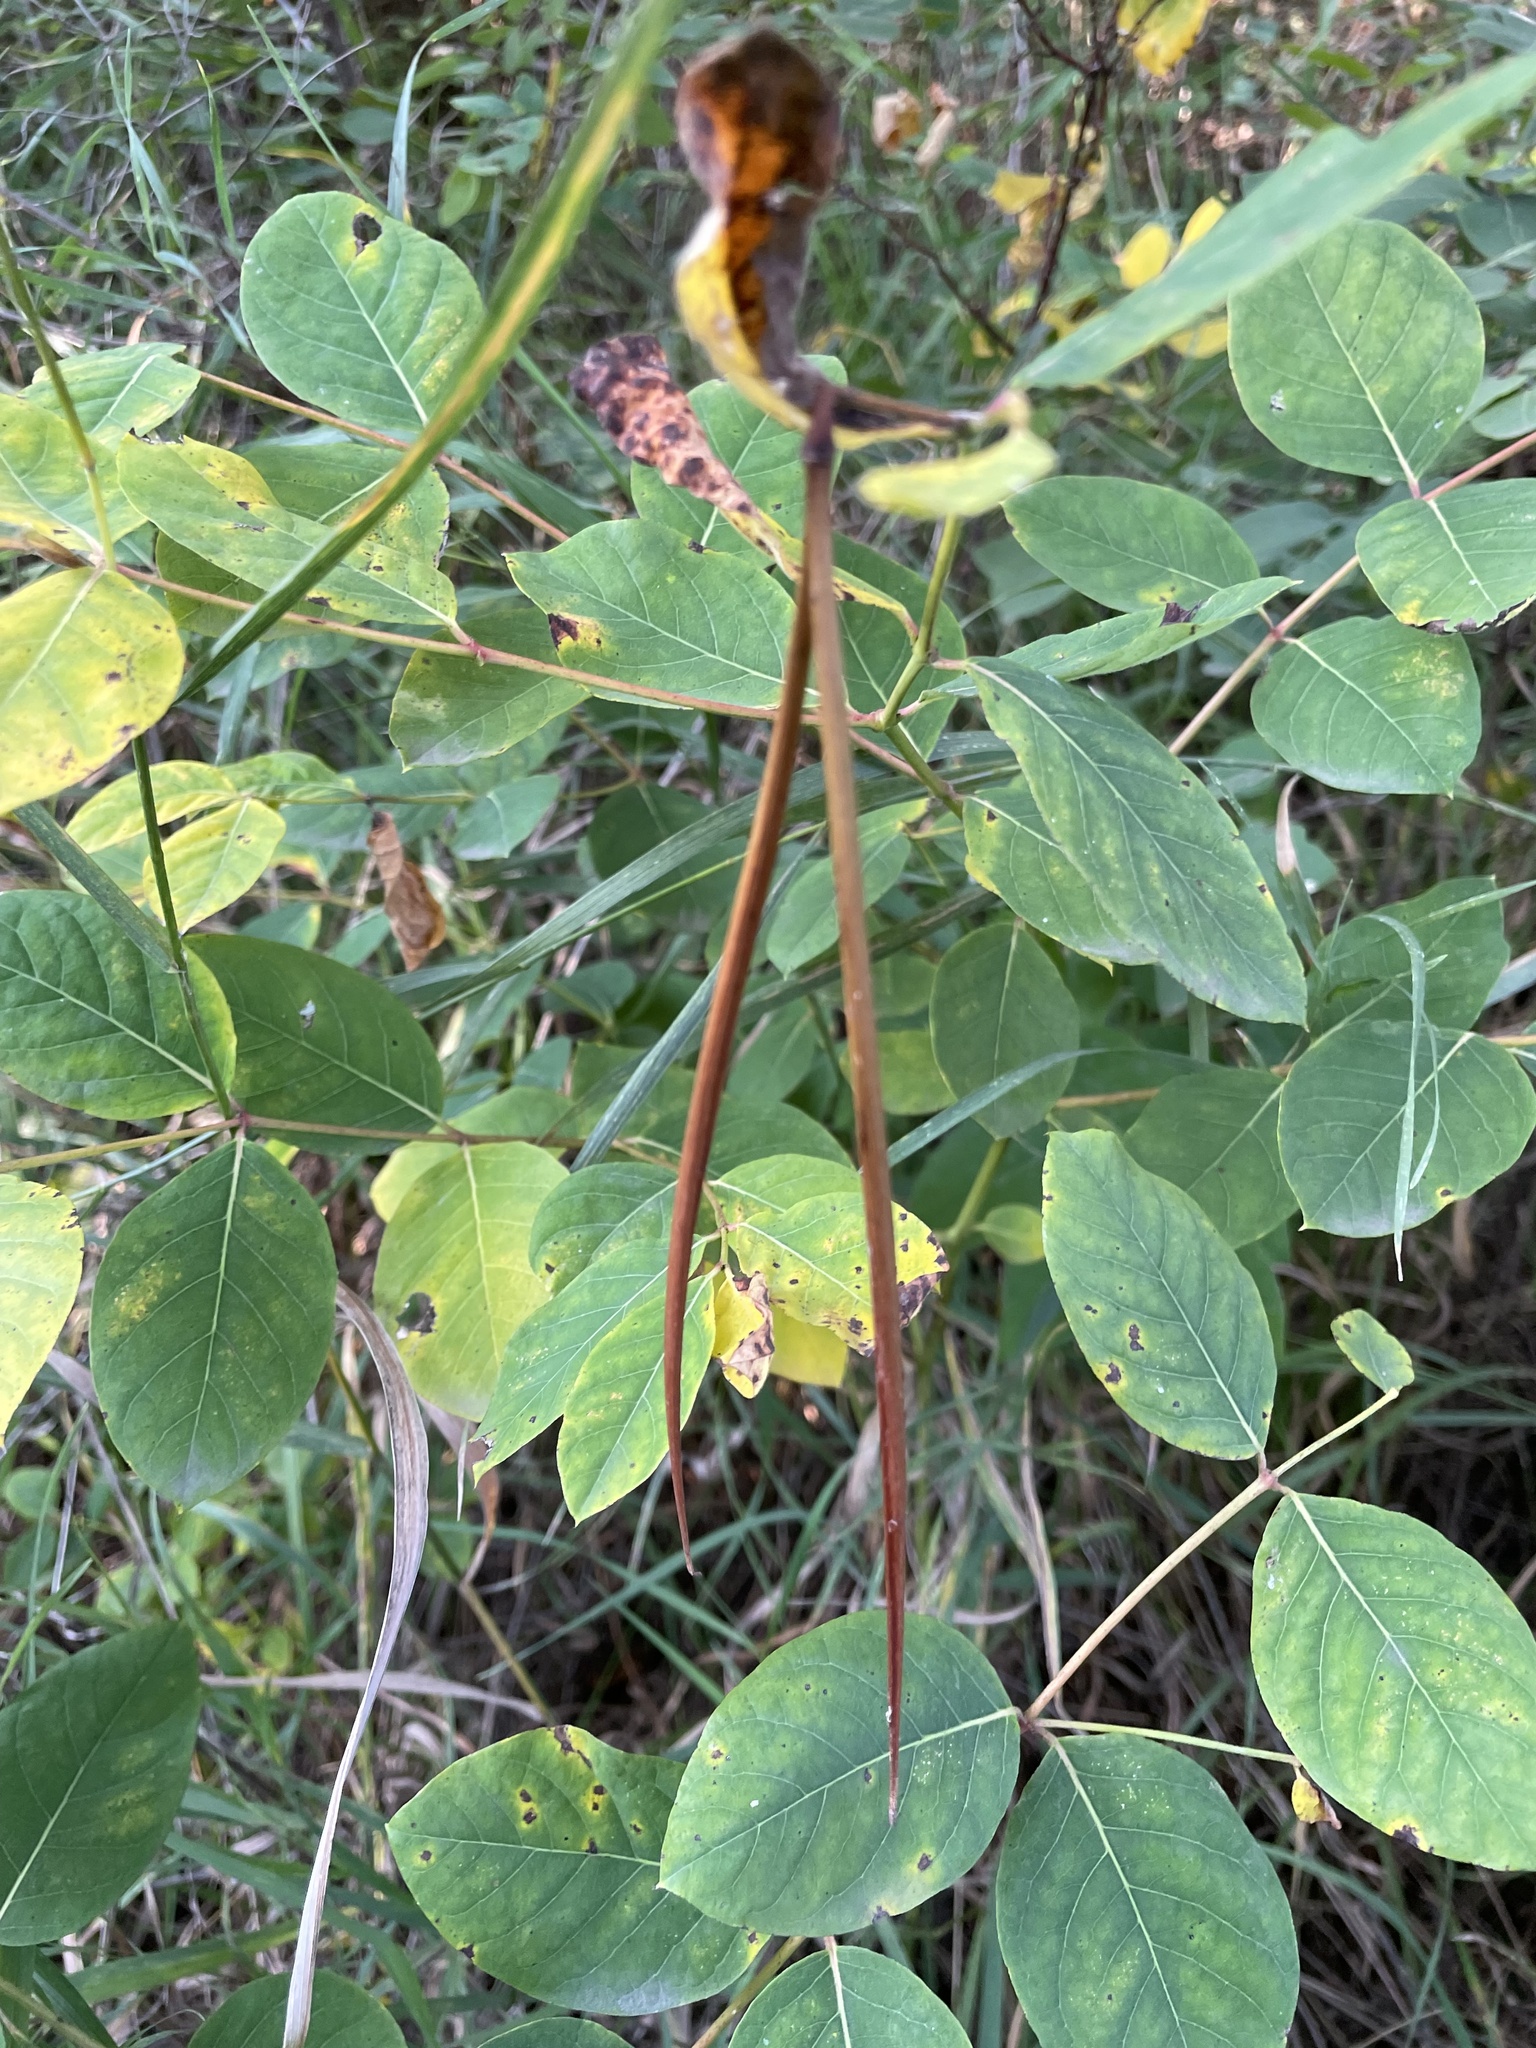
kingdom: Plantae
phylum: Tracheophyta
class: Magnoliopsida
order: Gentianales
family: Apocynaceae
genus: Apocynum
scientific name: Apocynum androsaemifolium
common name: Spreading dogbane
